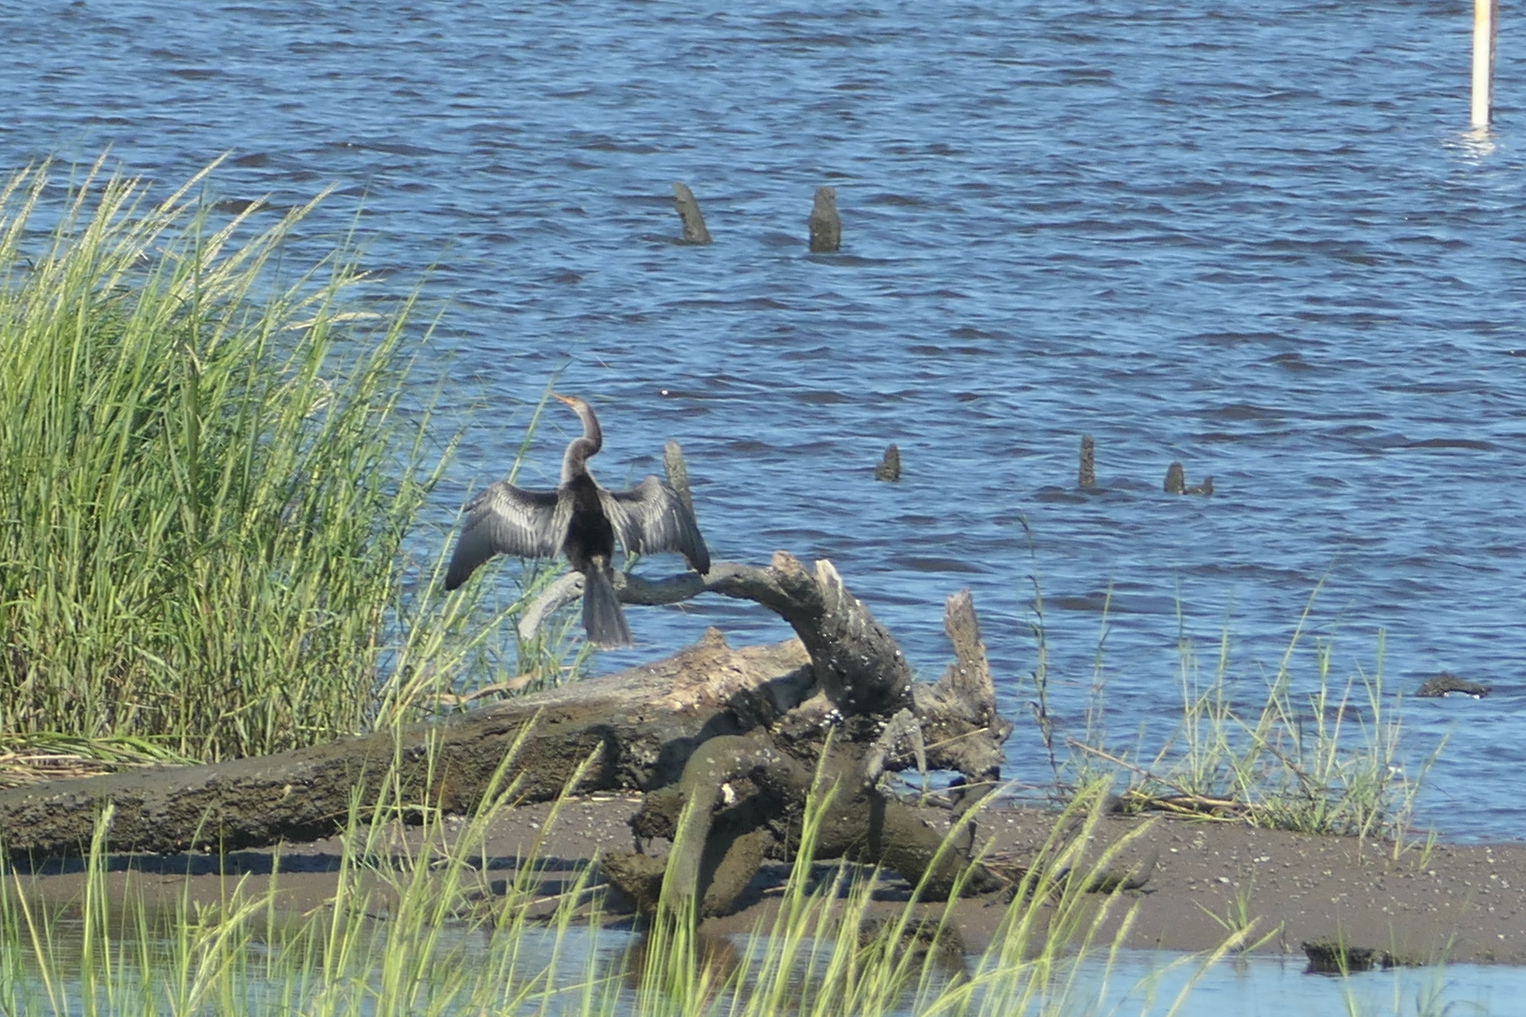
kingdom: Animalia
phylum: Chordata
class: Aves
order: Suliformes
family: Anhingidae
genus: Anhinga
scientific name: Anhinga anhinga
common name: Anhinga
